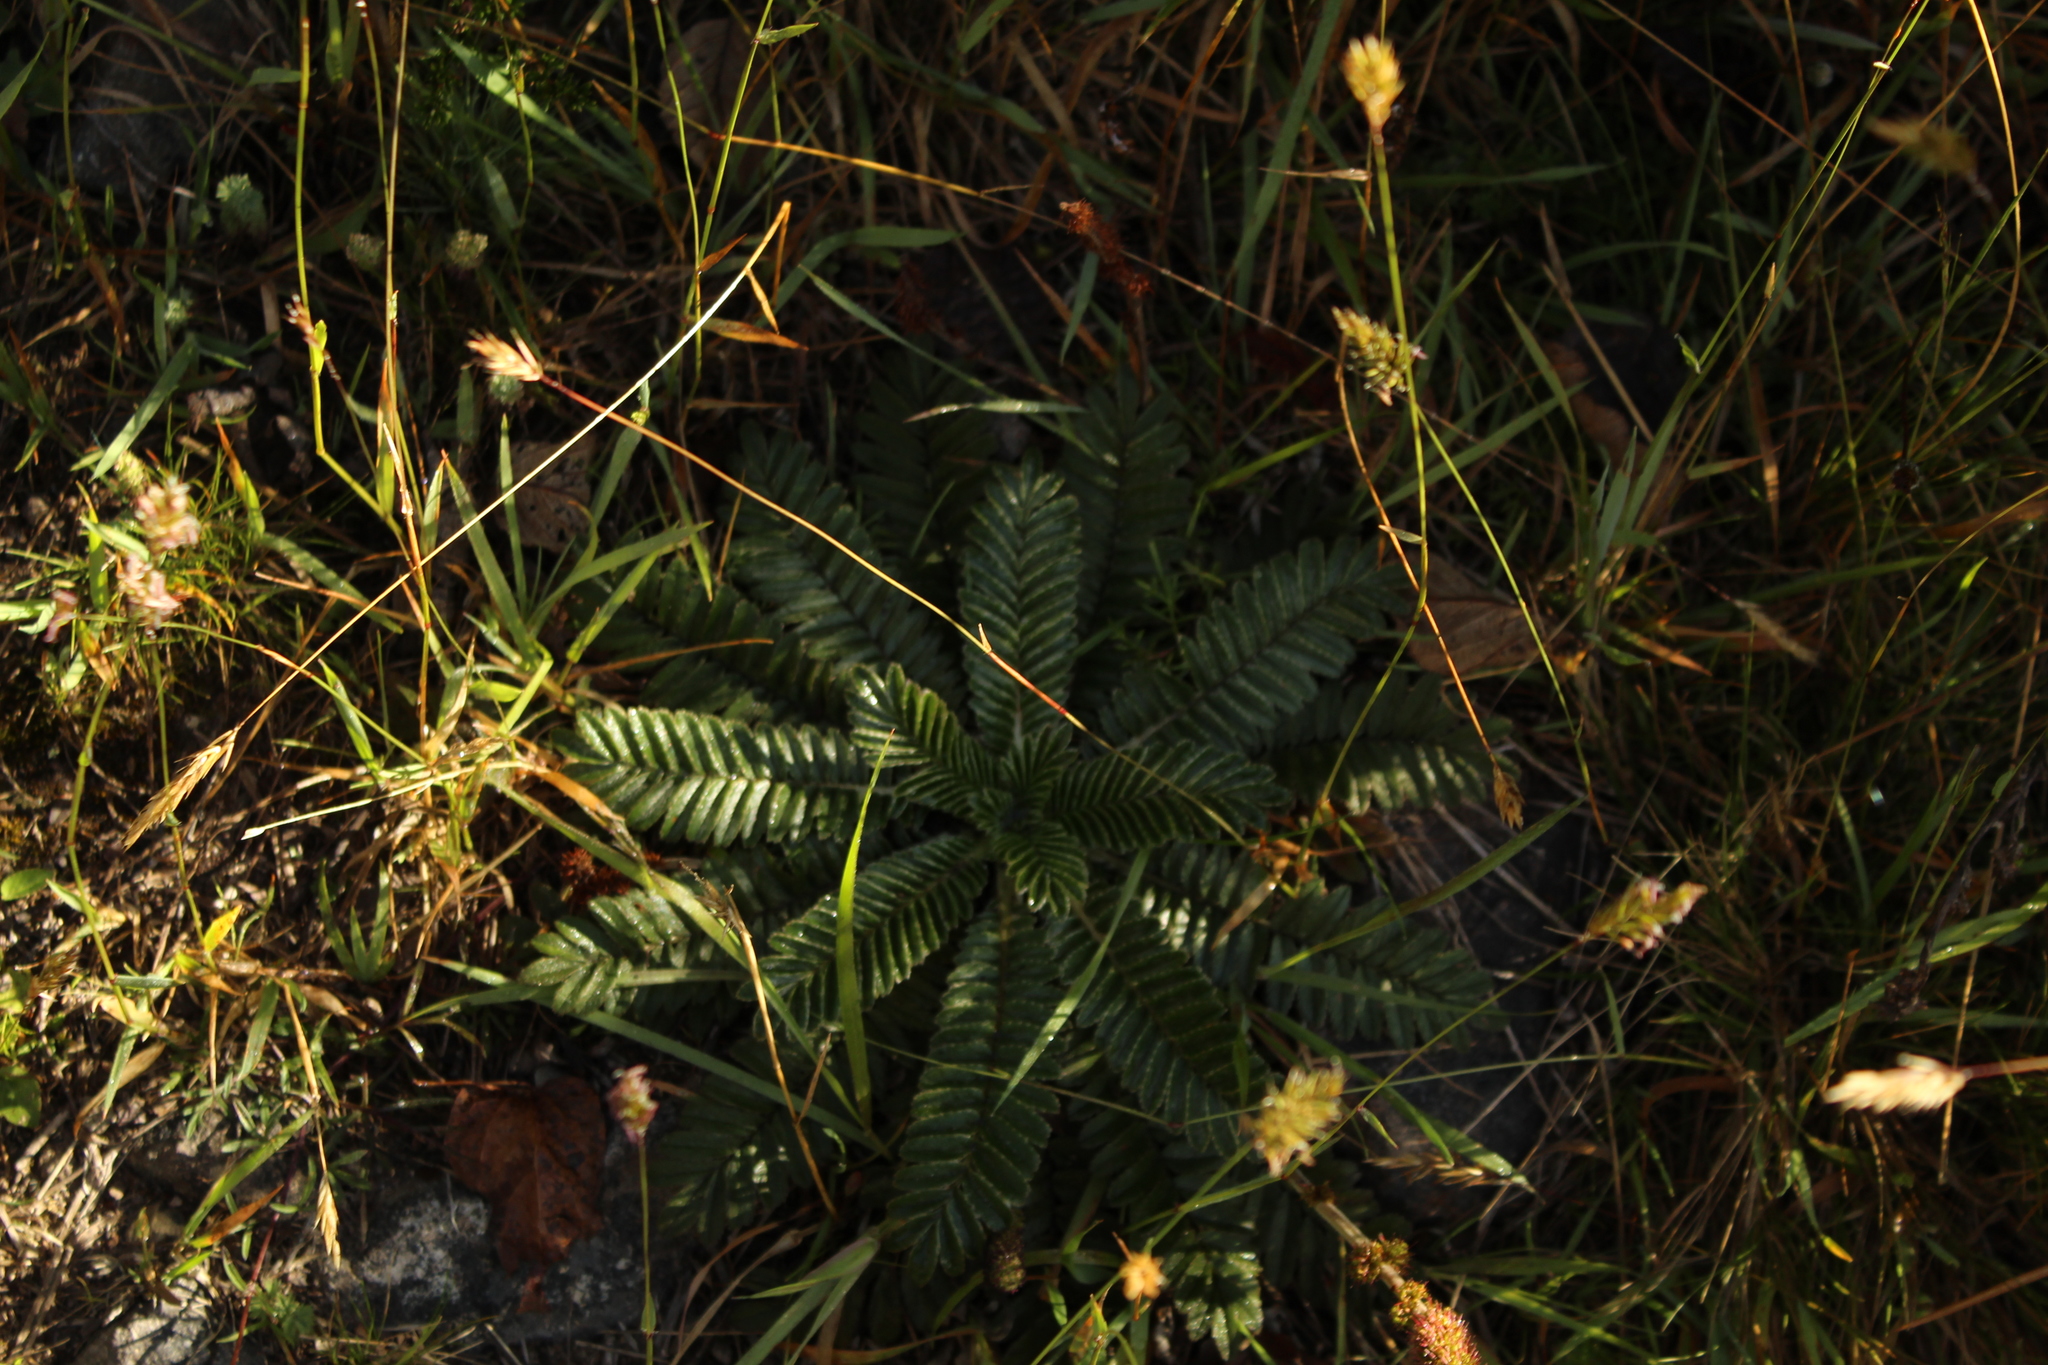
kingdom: Plantae
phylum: Tracheophyta
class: Magnoliopsida
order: Rosales
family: Rosaceae
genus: Acaena
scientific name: Acaena cylindristachya
